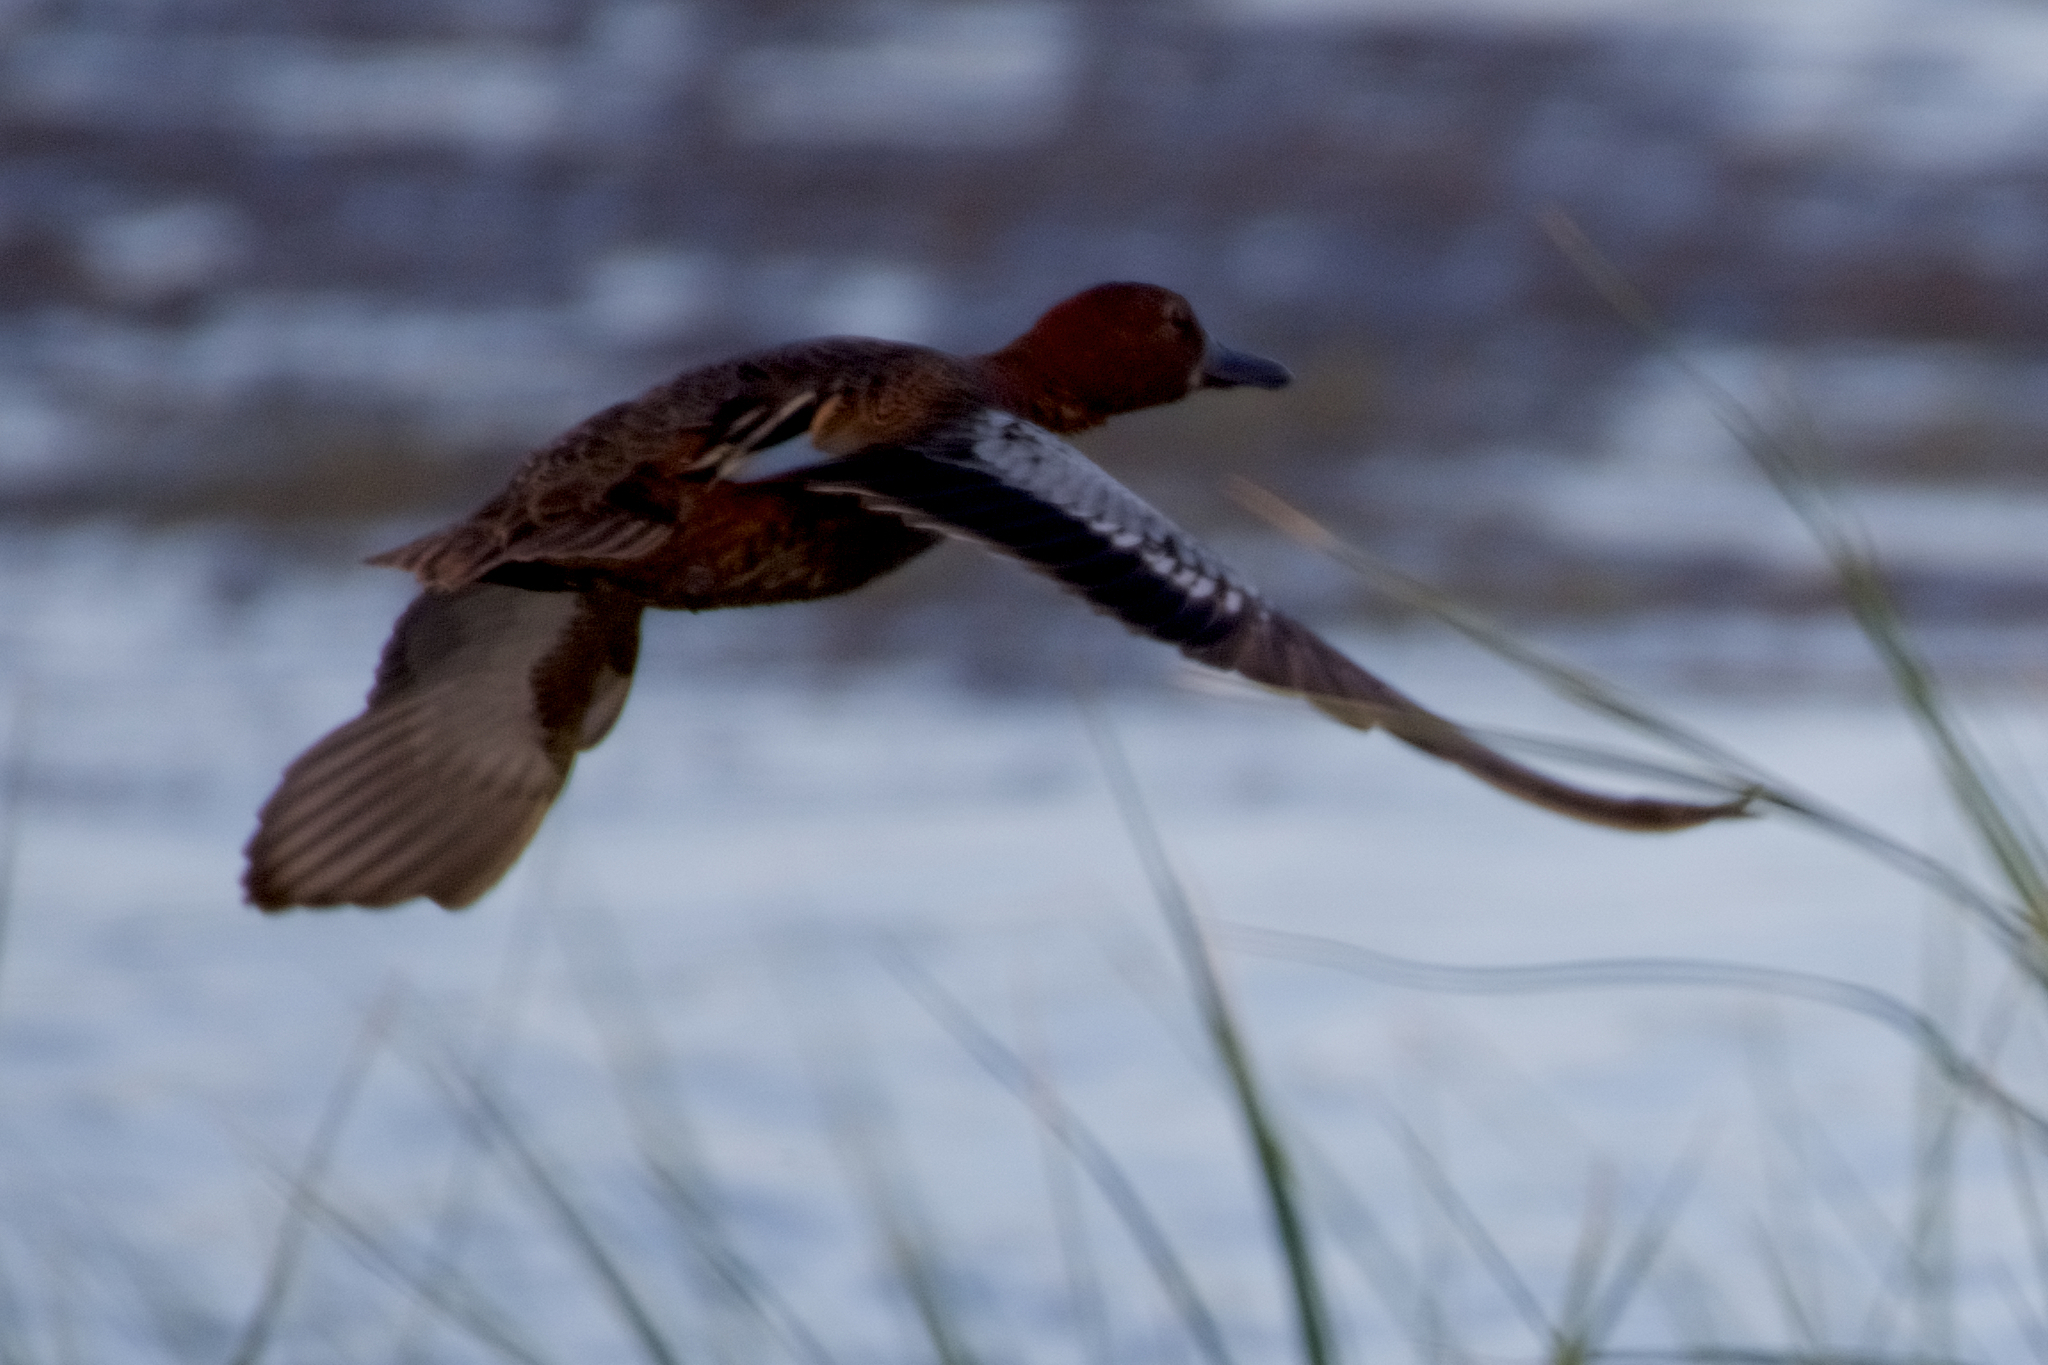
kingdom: Animalia
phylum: Chordata
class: Aves
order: Anseriformes
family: Anatidae
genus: Spatula
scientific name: Spatula cyanoptera
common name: Cinnamon teal
